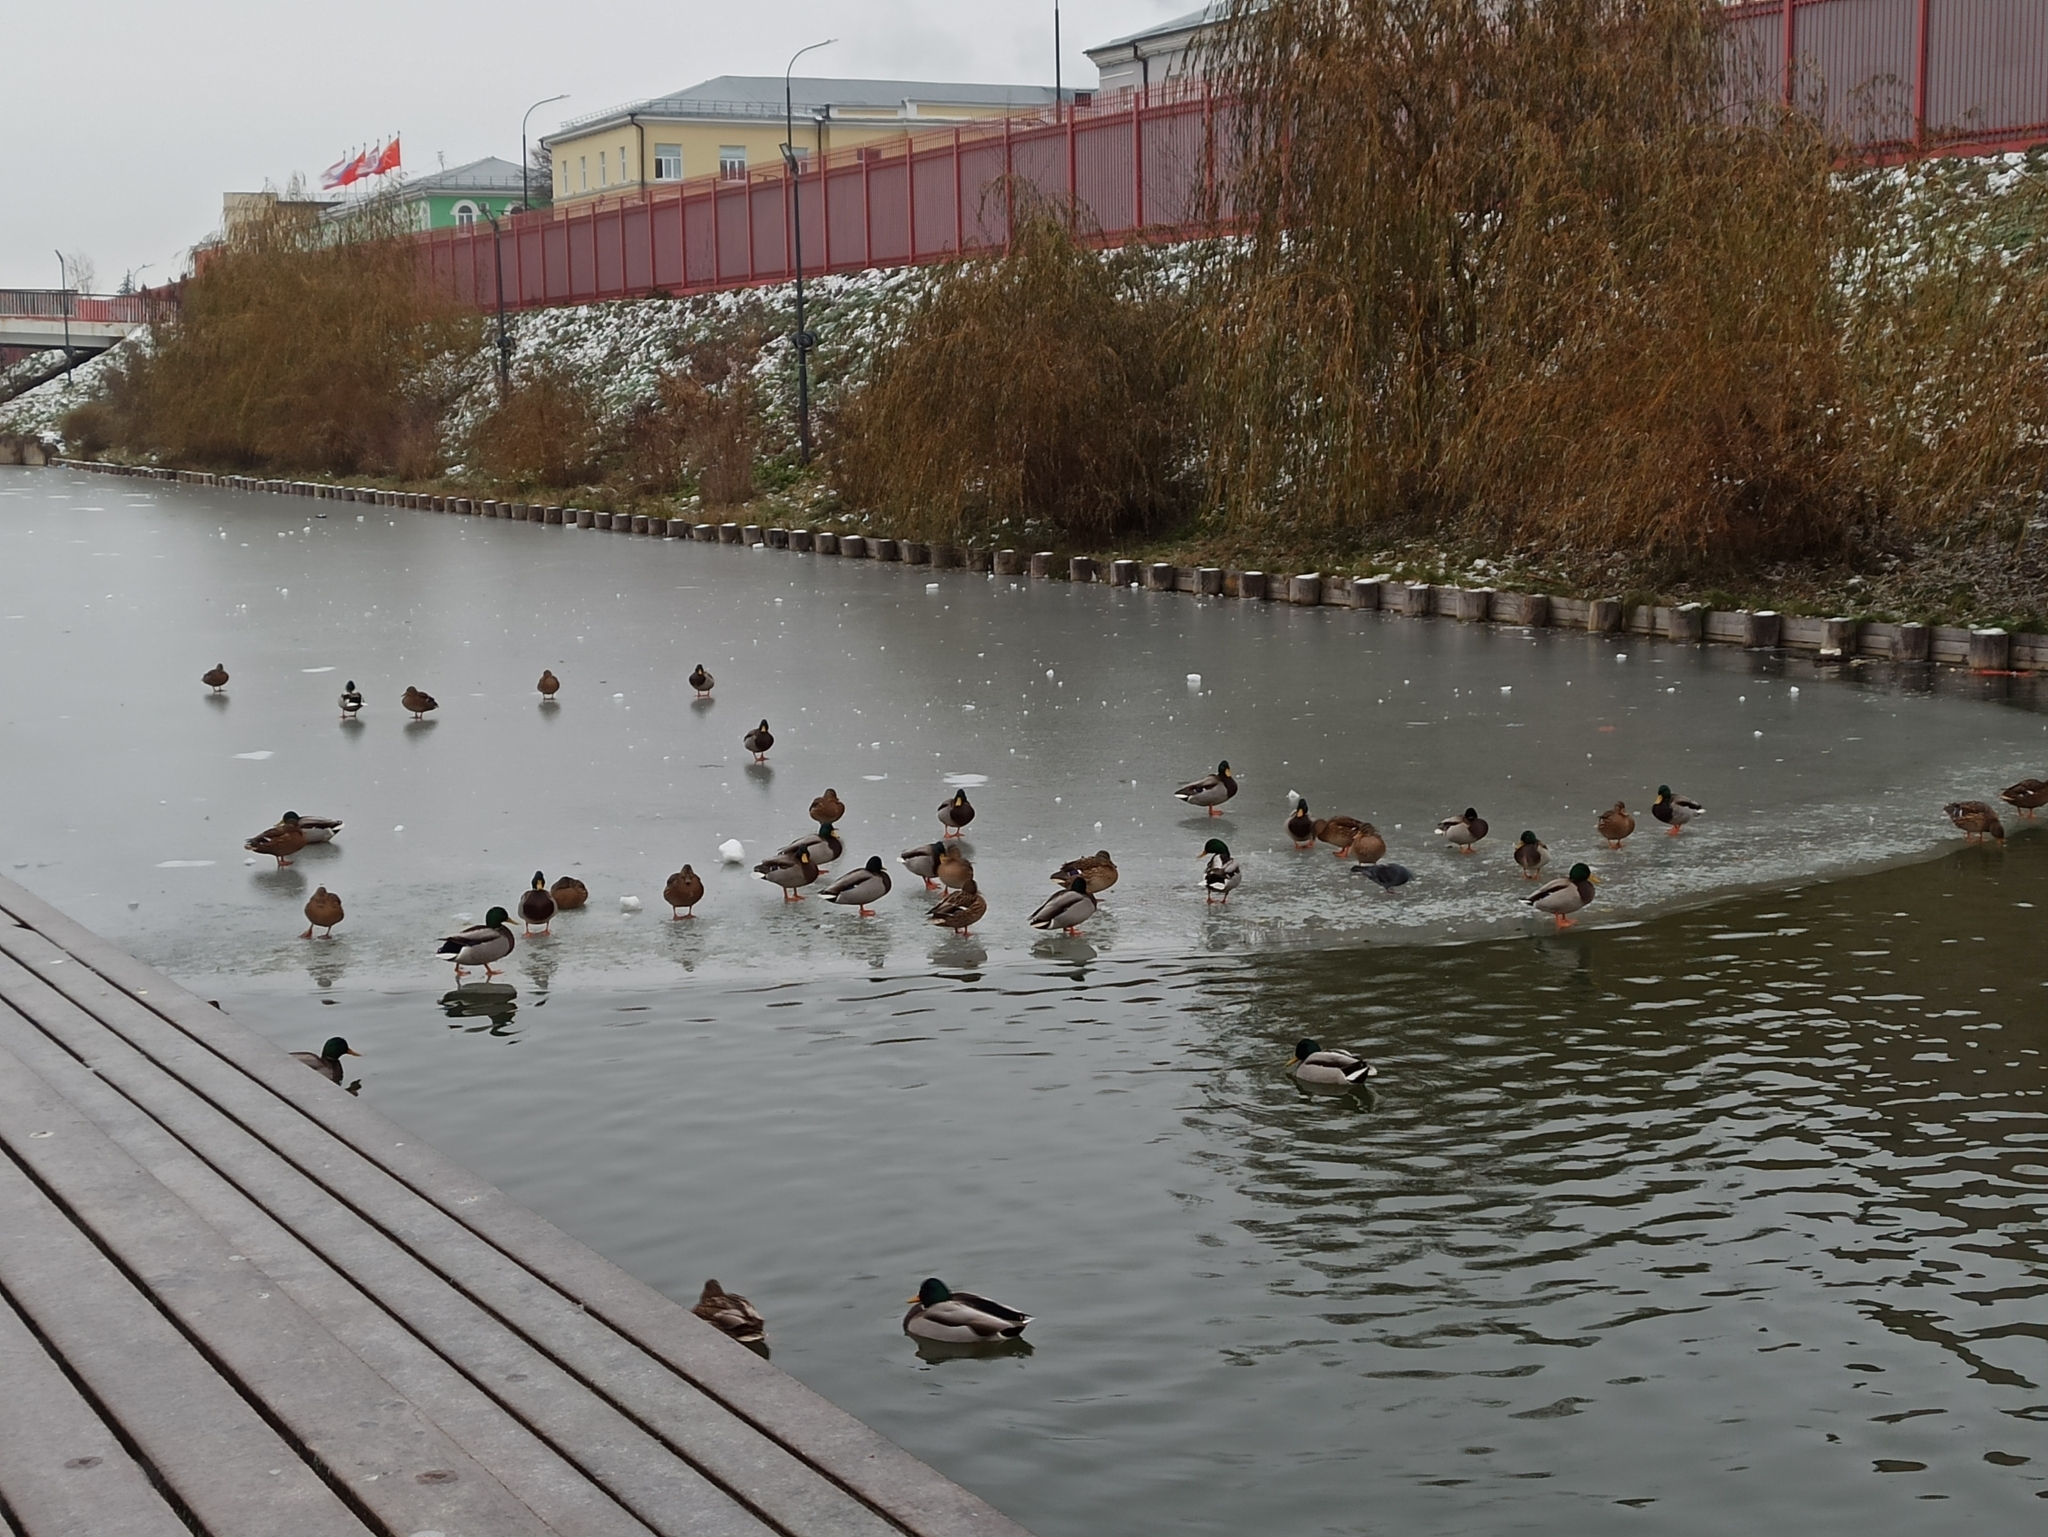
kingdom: Animalia
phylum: Chordata
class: Aves
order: Anseriformes
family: Anatidae
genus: Anas
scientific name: Anas platyrhynchos
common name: Mallard
